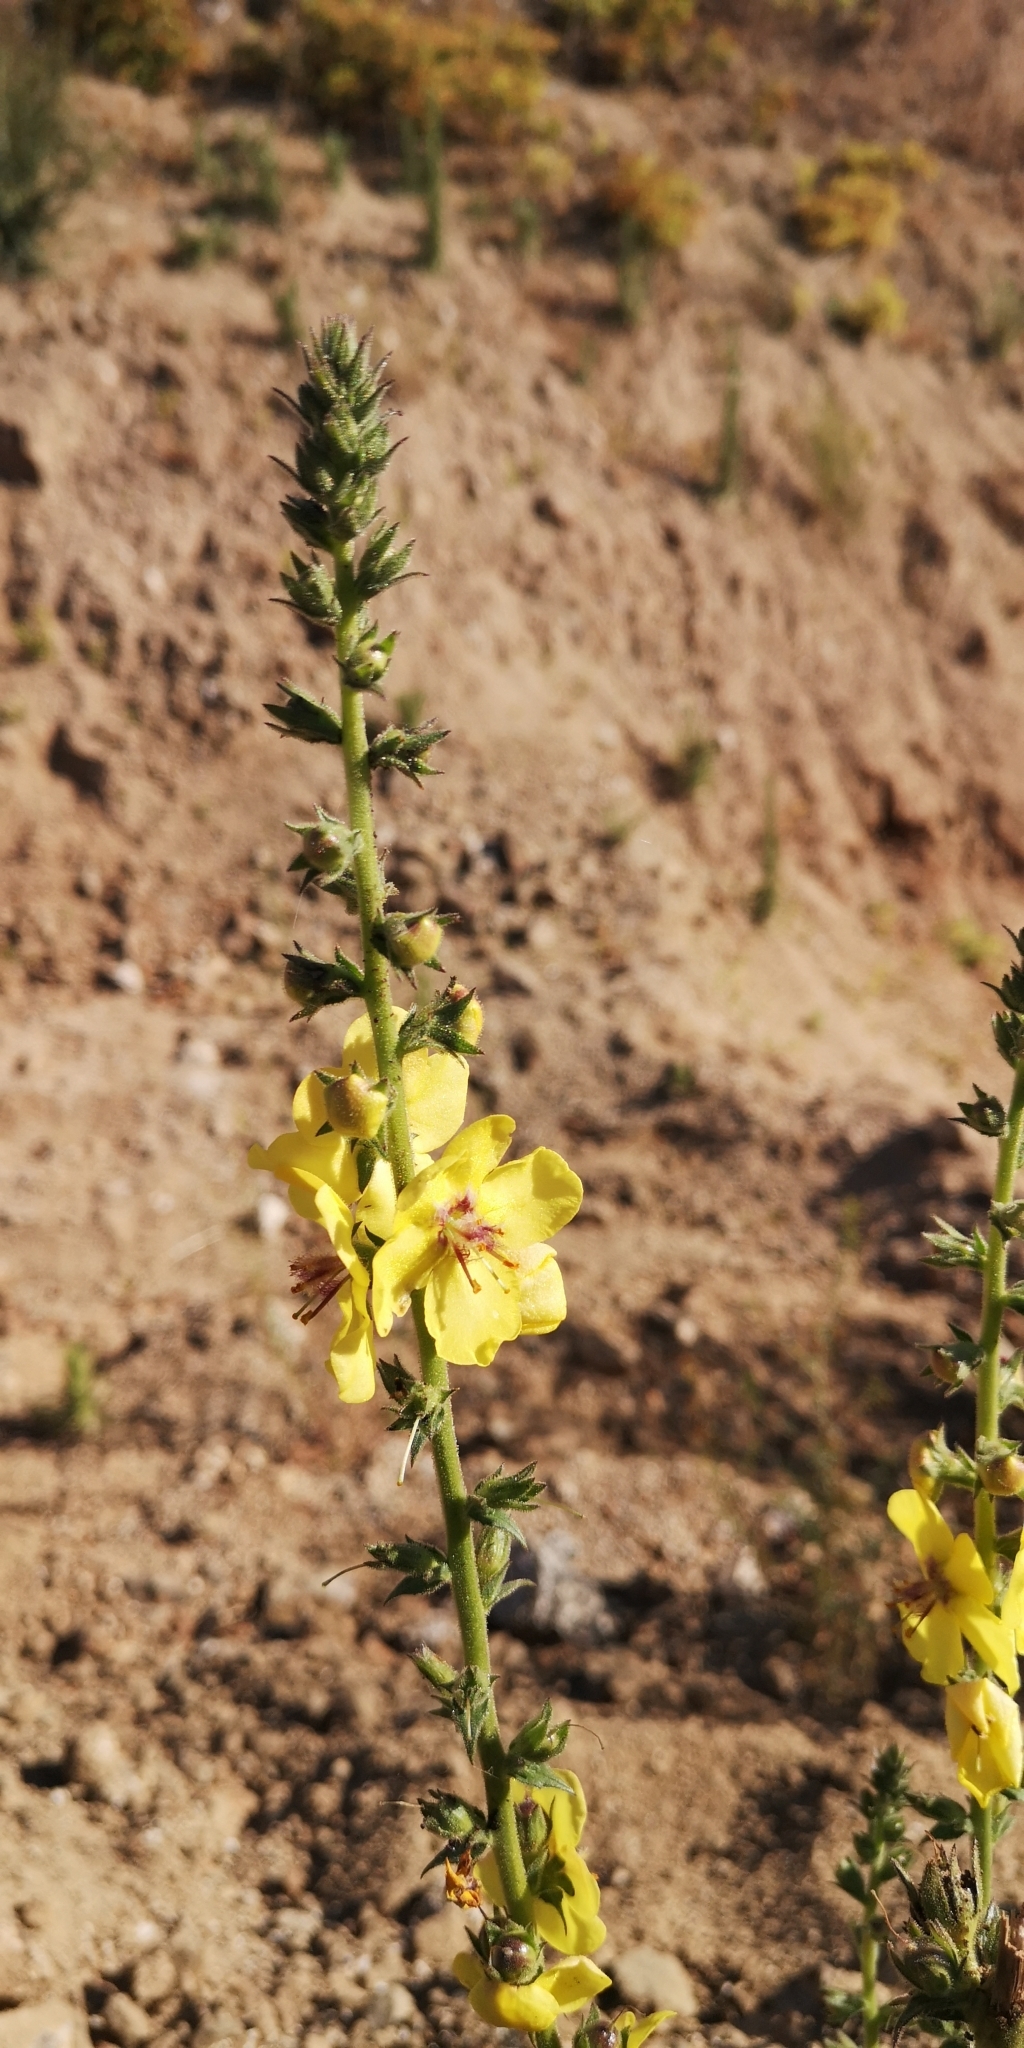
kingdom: Plantae
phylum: Tracheophyta
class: Magnoliopsida
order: Lamiales
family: Scrophulariaceae
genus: Verbascum
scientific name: Verbascum virgatum
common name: Twiggy mullein
